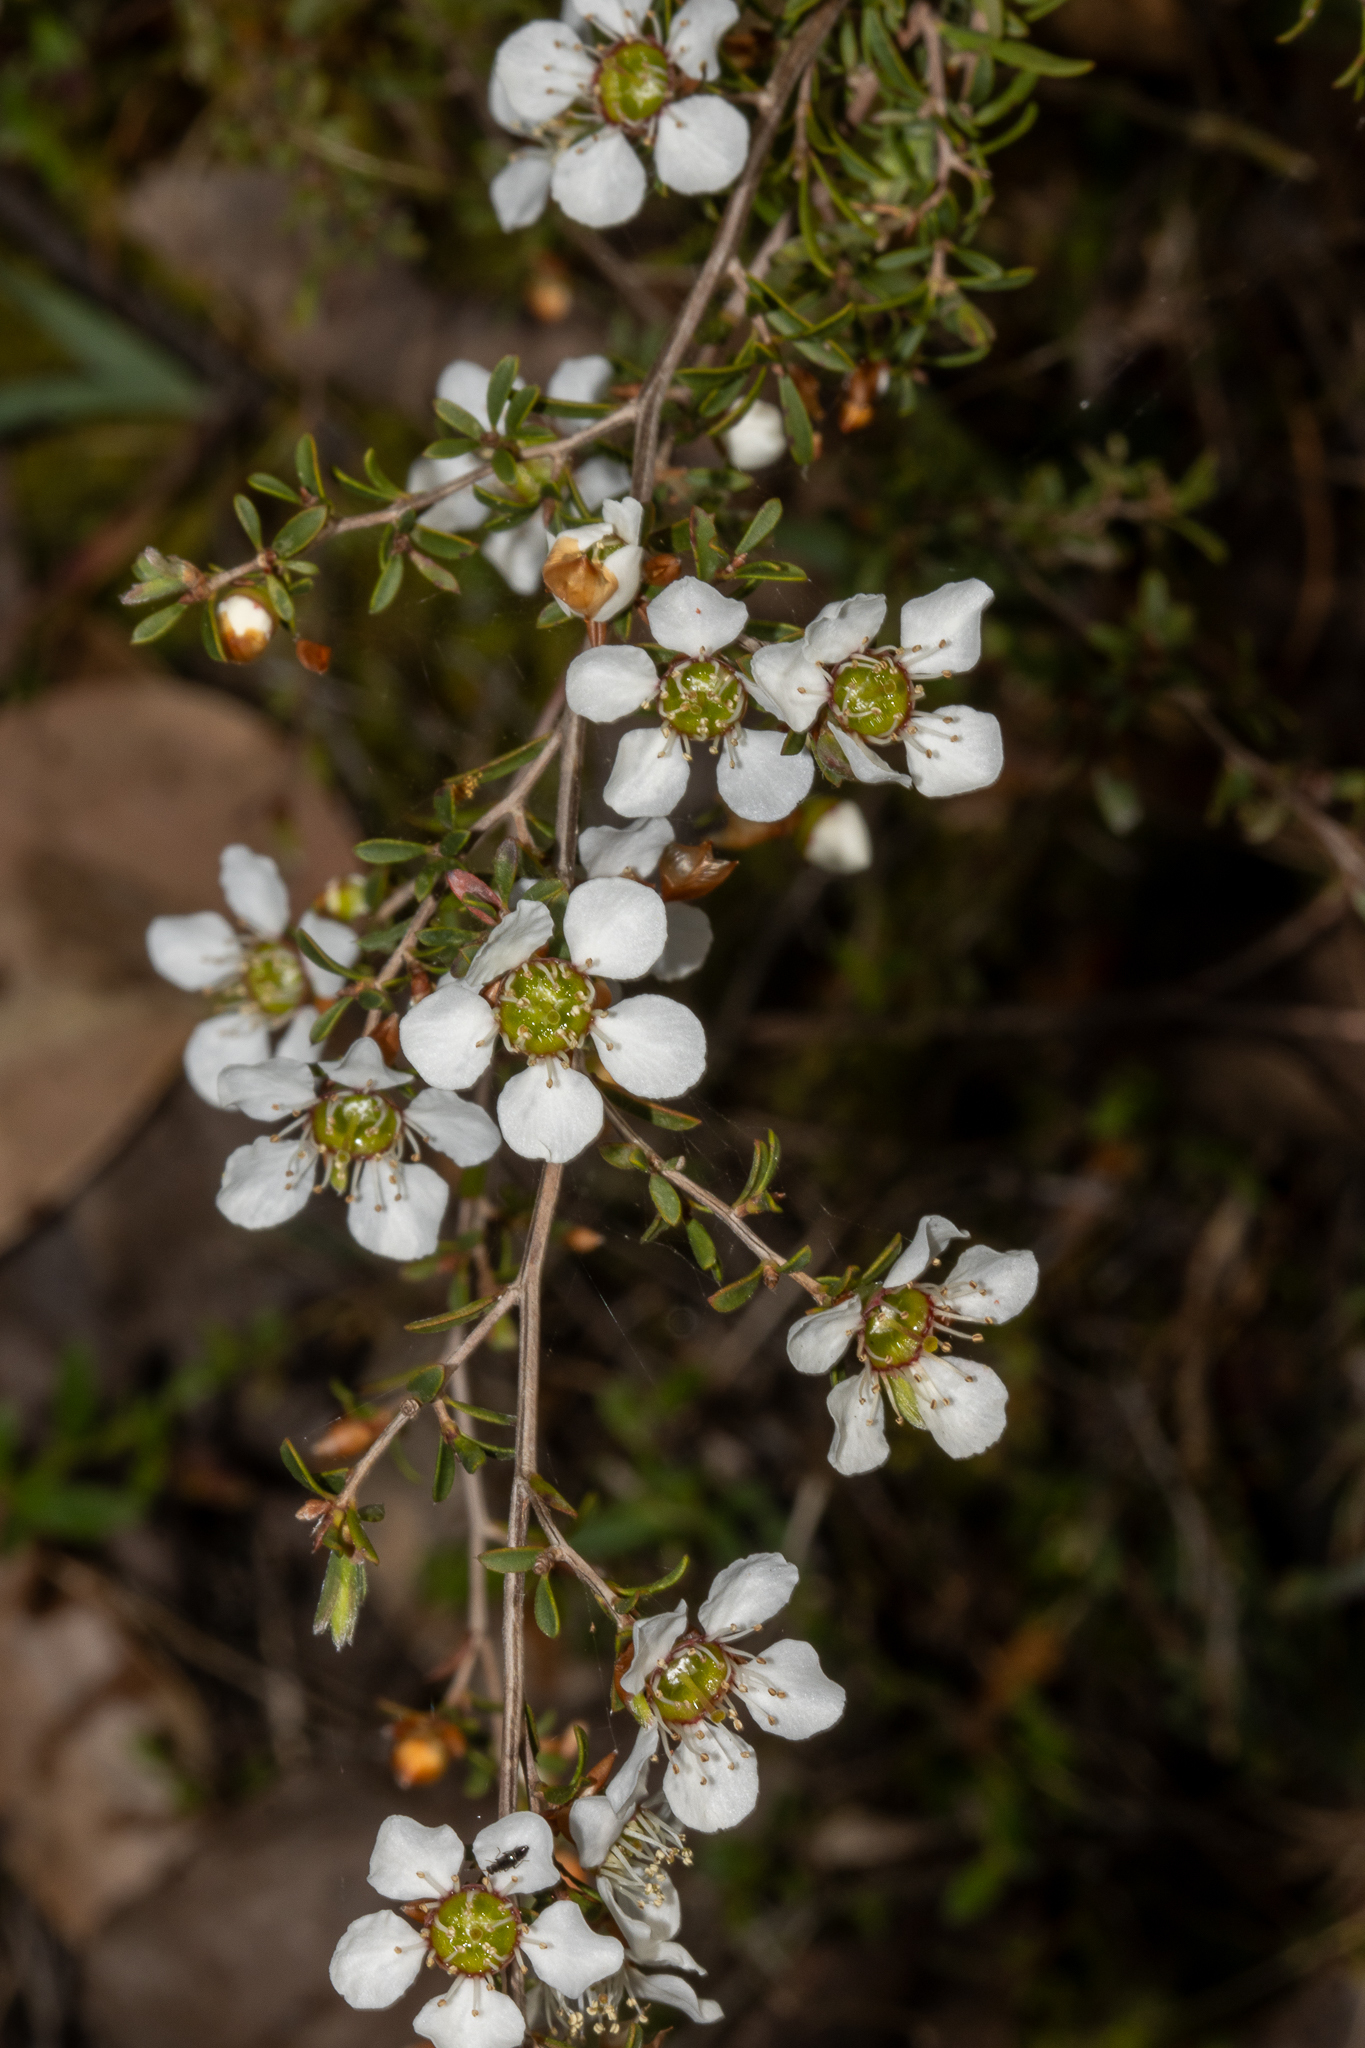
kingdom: Plantae
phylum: Tracheophyta
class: Magnoliopsida
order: Myrtales
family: Myrtaceae
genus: Leptospermum
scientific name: Leptospermum myrsinoides
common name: Heath teatree
